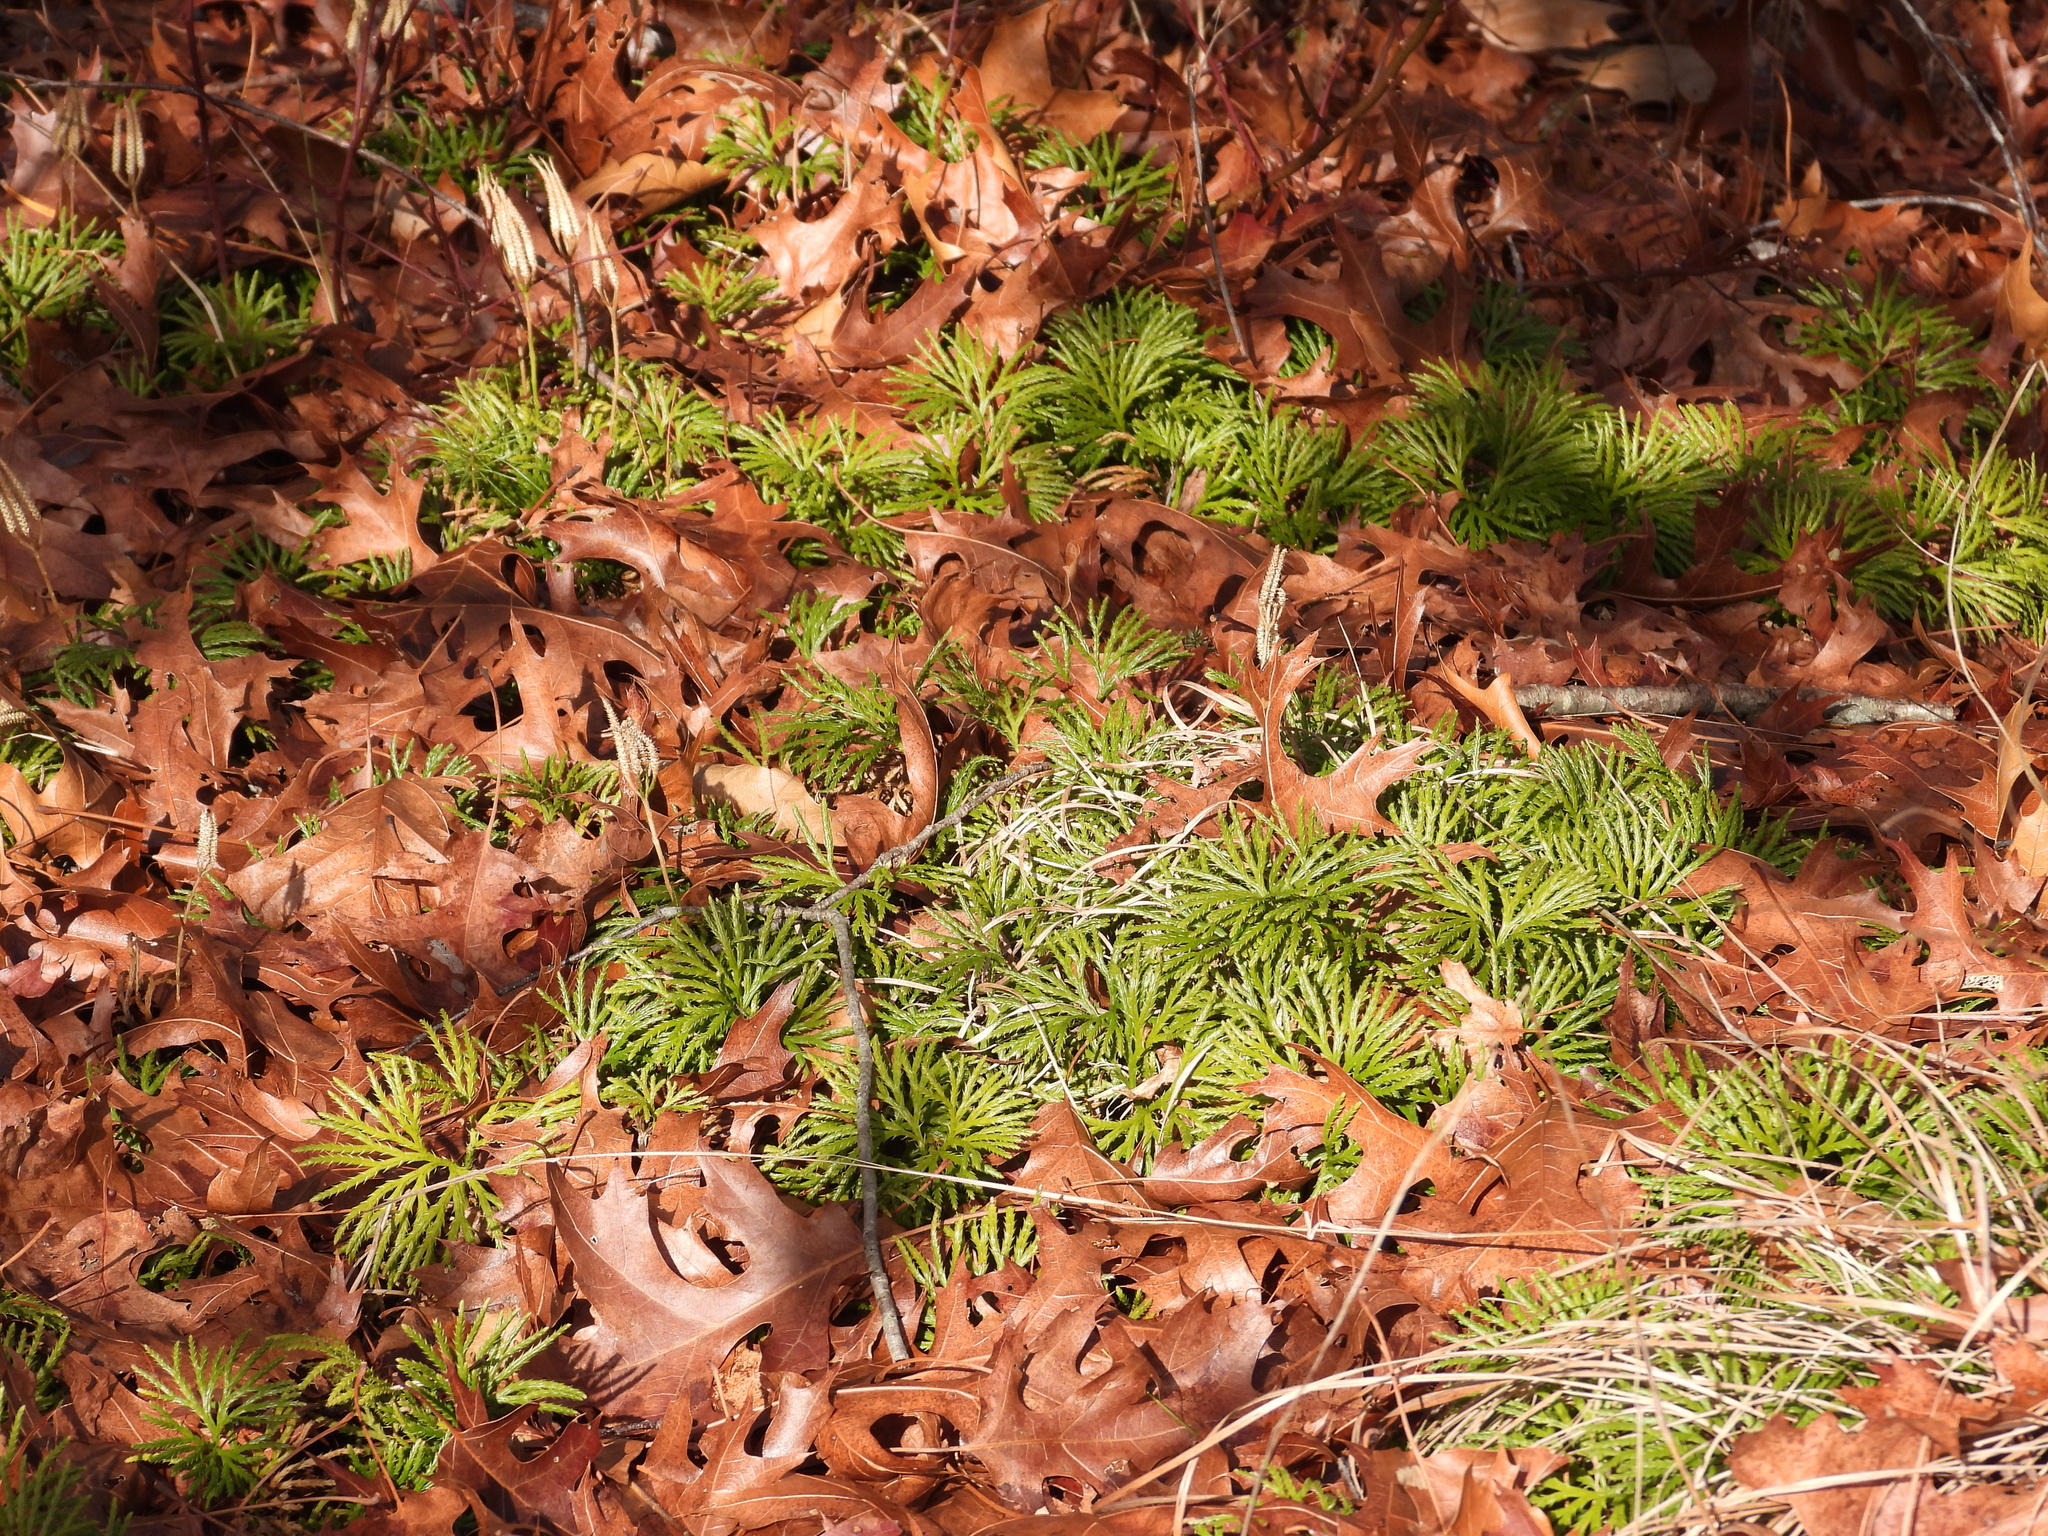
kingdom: Plantae
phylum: Tracheophyta
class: Lycopodiopsida
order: Lycopodiales
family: Lycopodiaceae
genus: Diphasiastrum
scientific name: Diphasiastrum digitatum
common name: Southern running-pine
